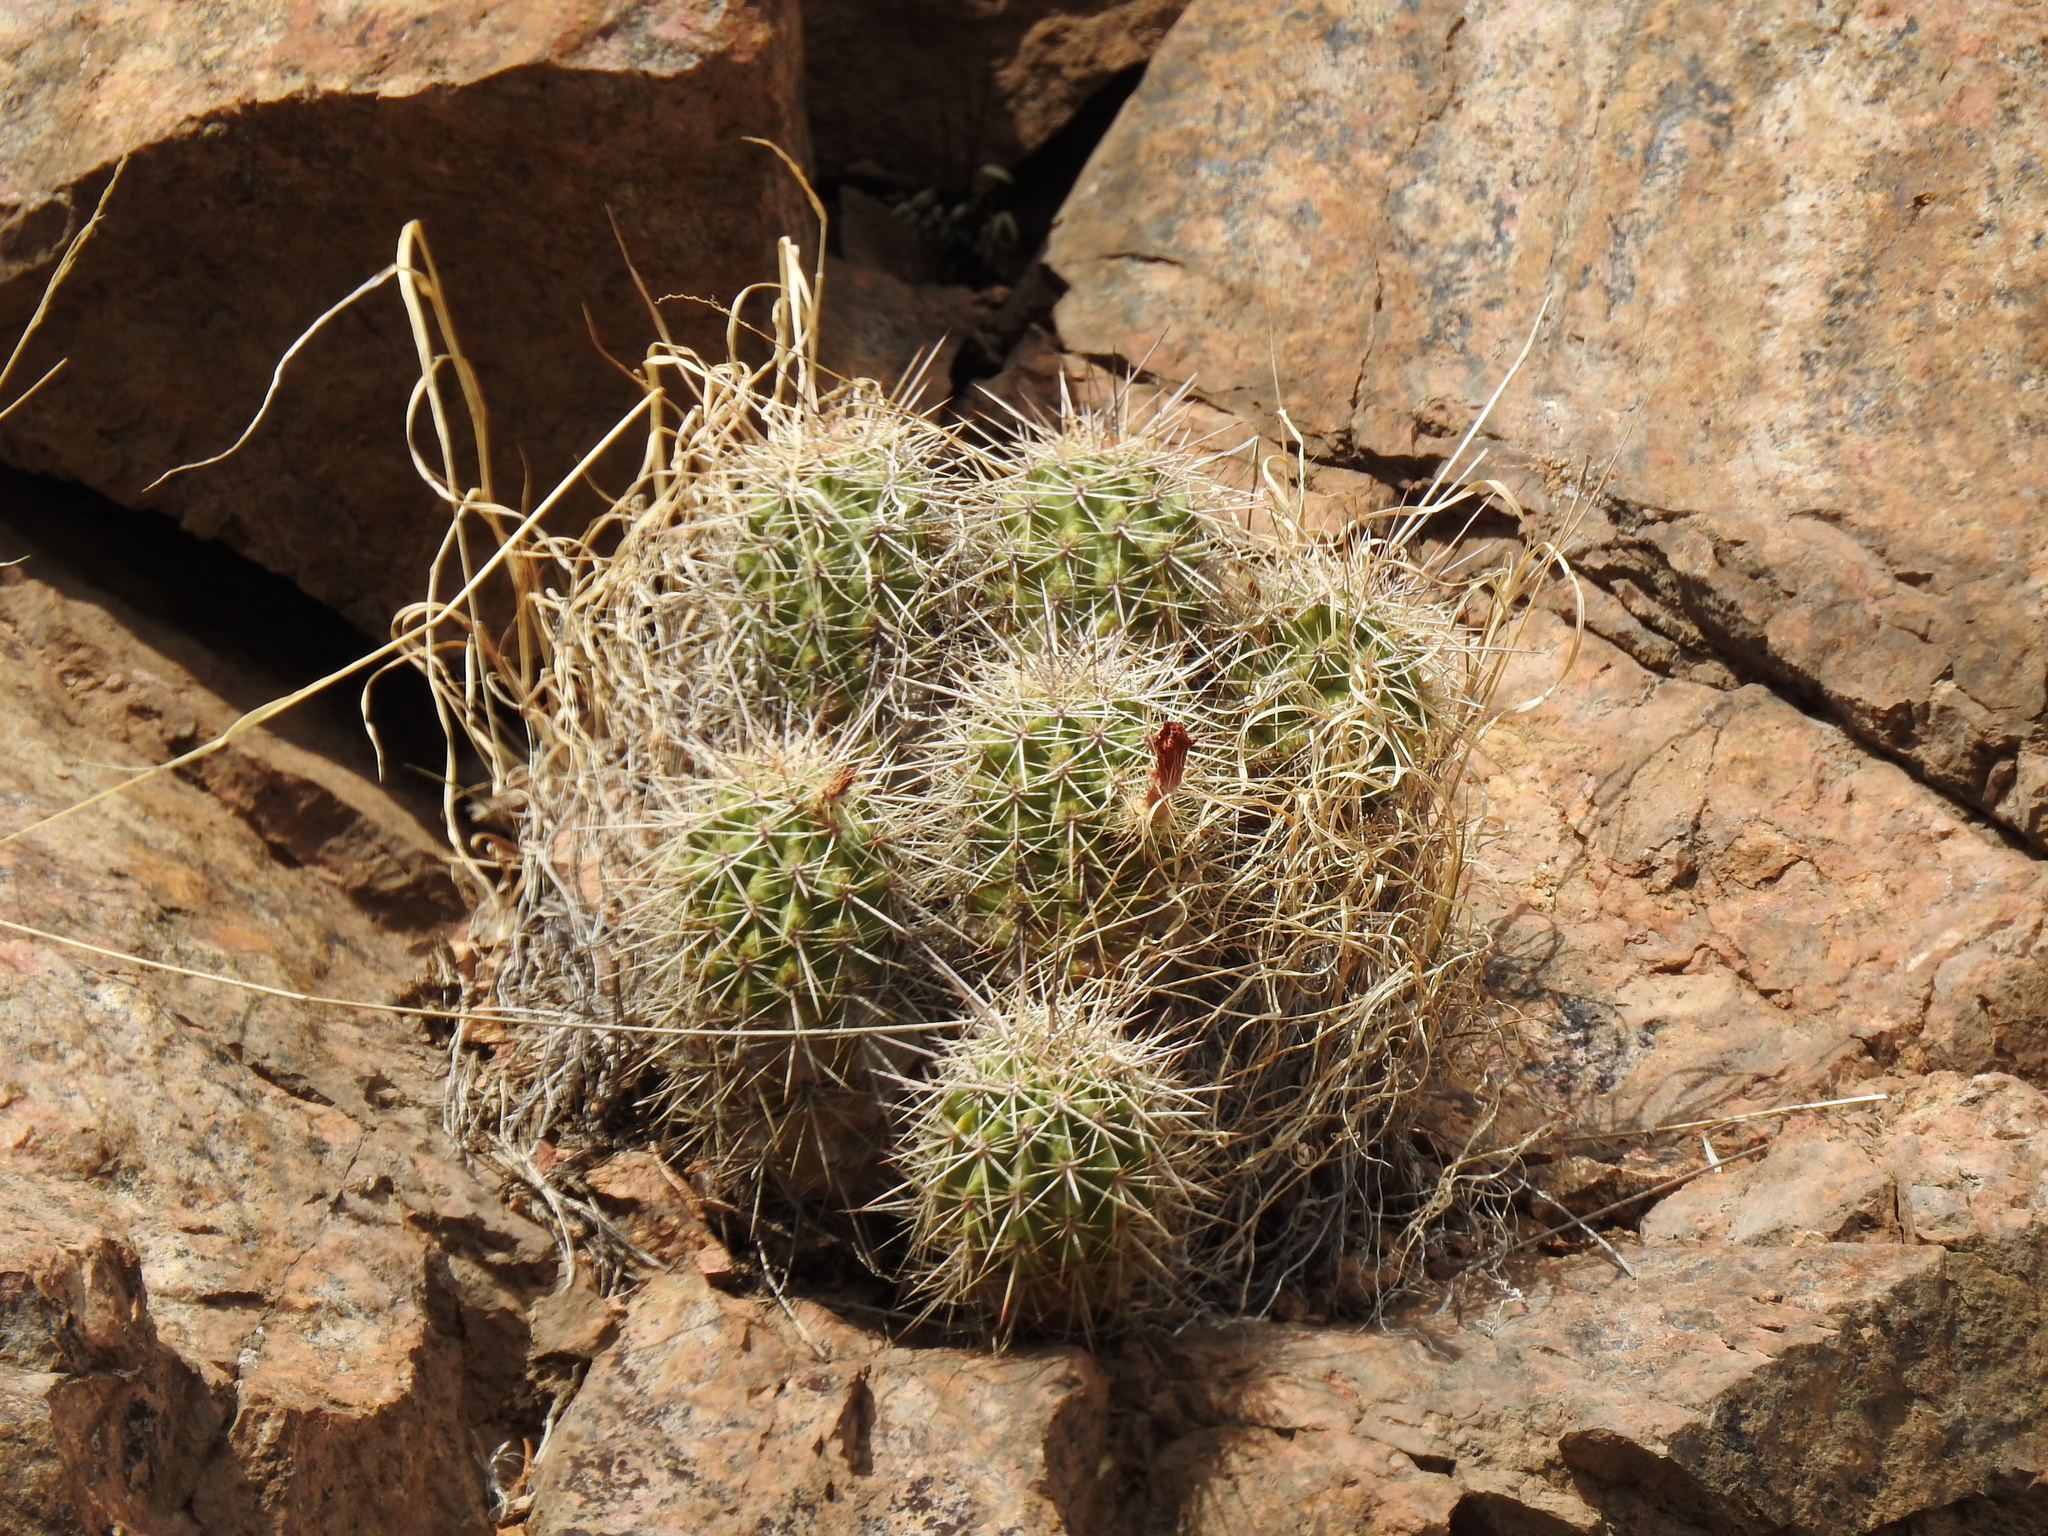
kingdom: Plantae
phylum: Tracheophyta
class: Magnoliopsida
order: Caryophyllales
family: Cactaceae
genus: Echinocereus
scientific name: Echinocereus coccineus
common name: Scarlet hedgehog cactus
